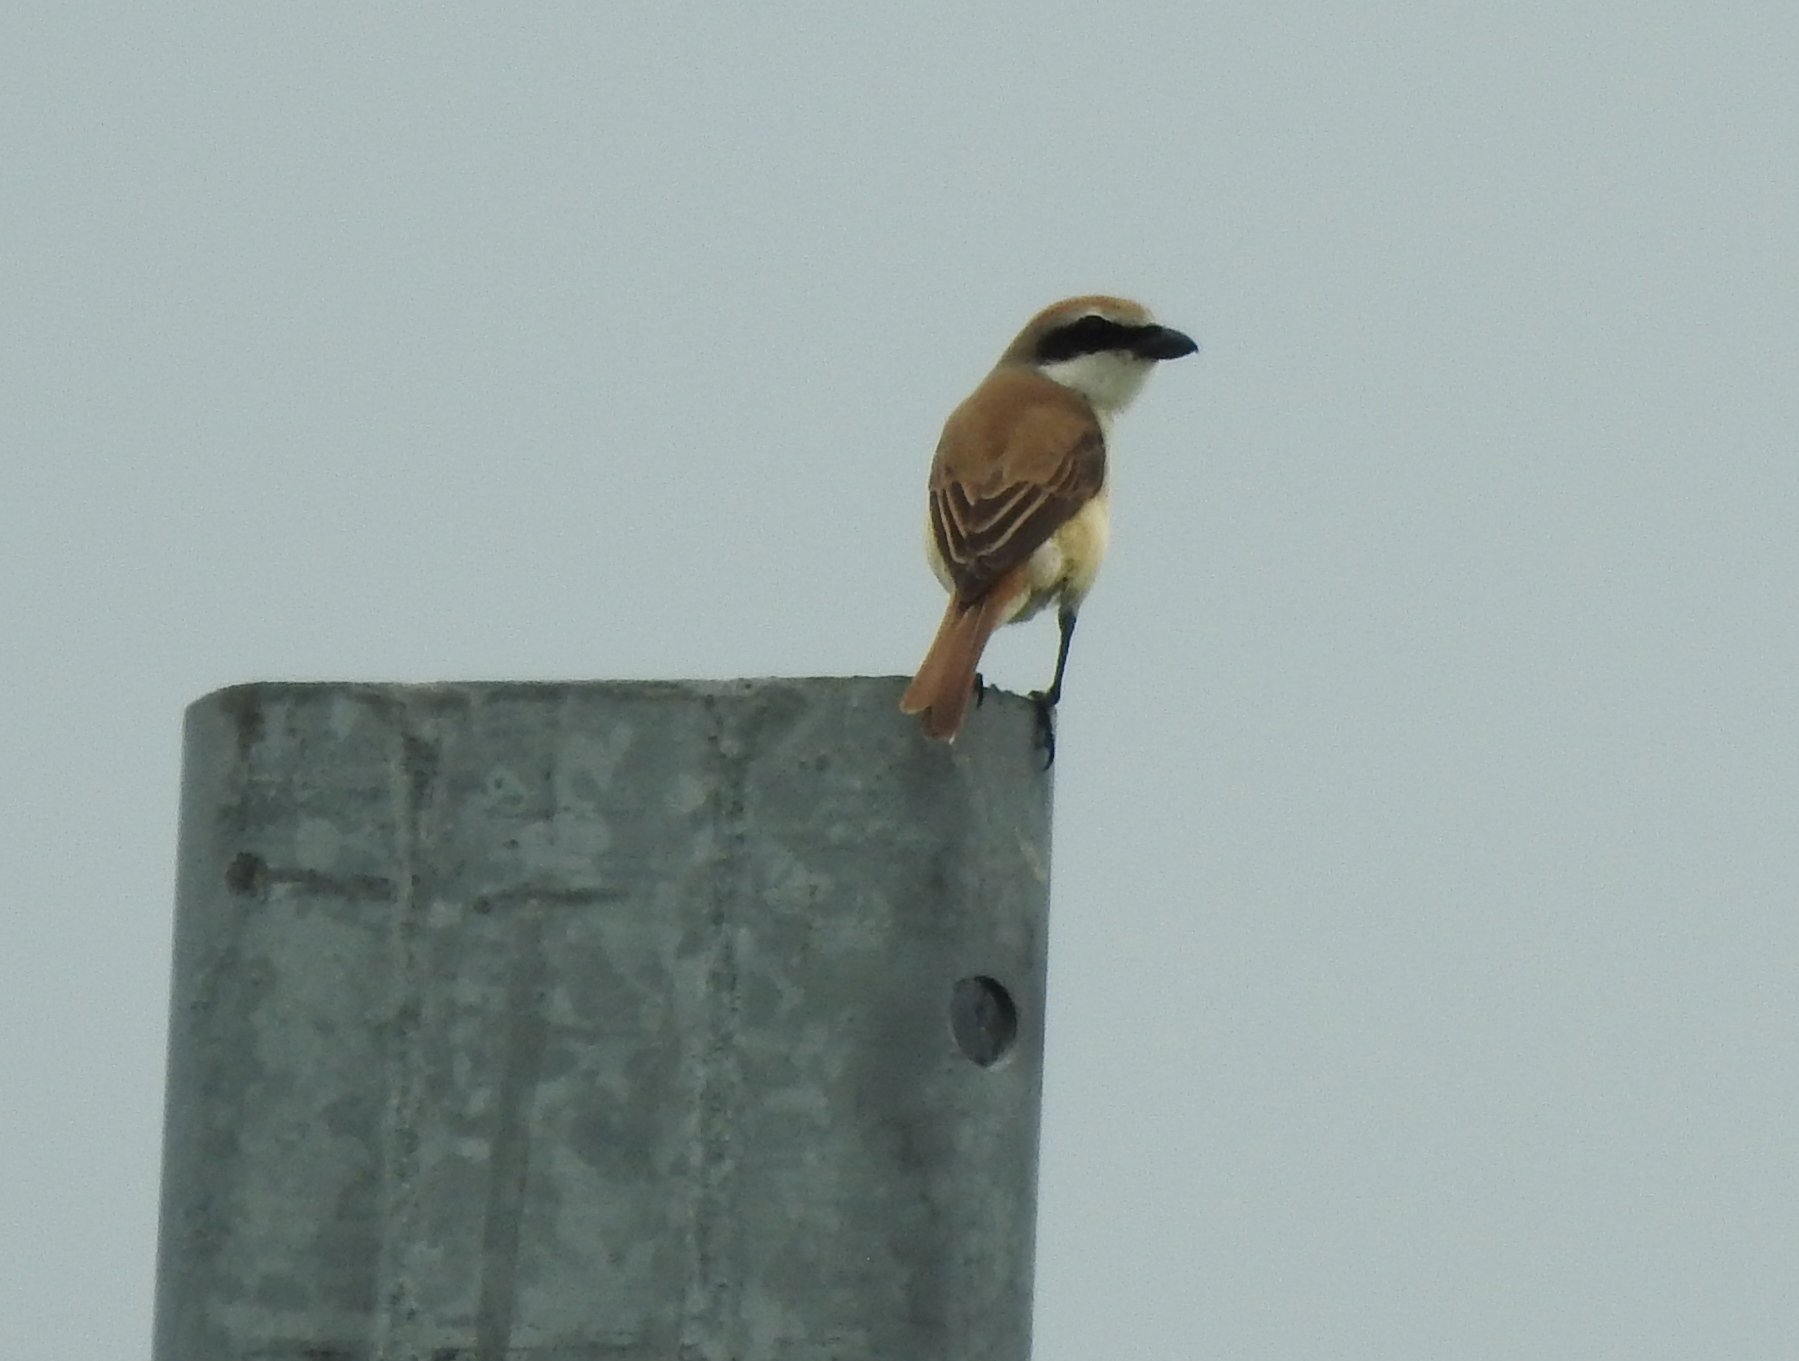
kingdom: Animalia
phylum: Chordata
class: Aves
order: Passeriformes
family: Laniidae
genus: Lanius
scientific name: Lanius cristatus
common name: Brown shrike
